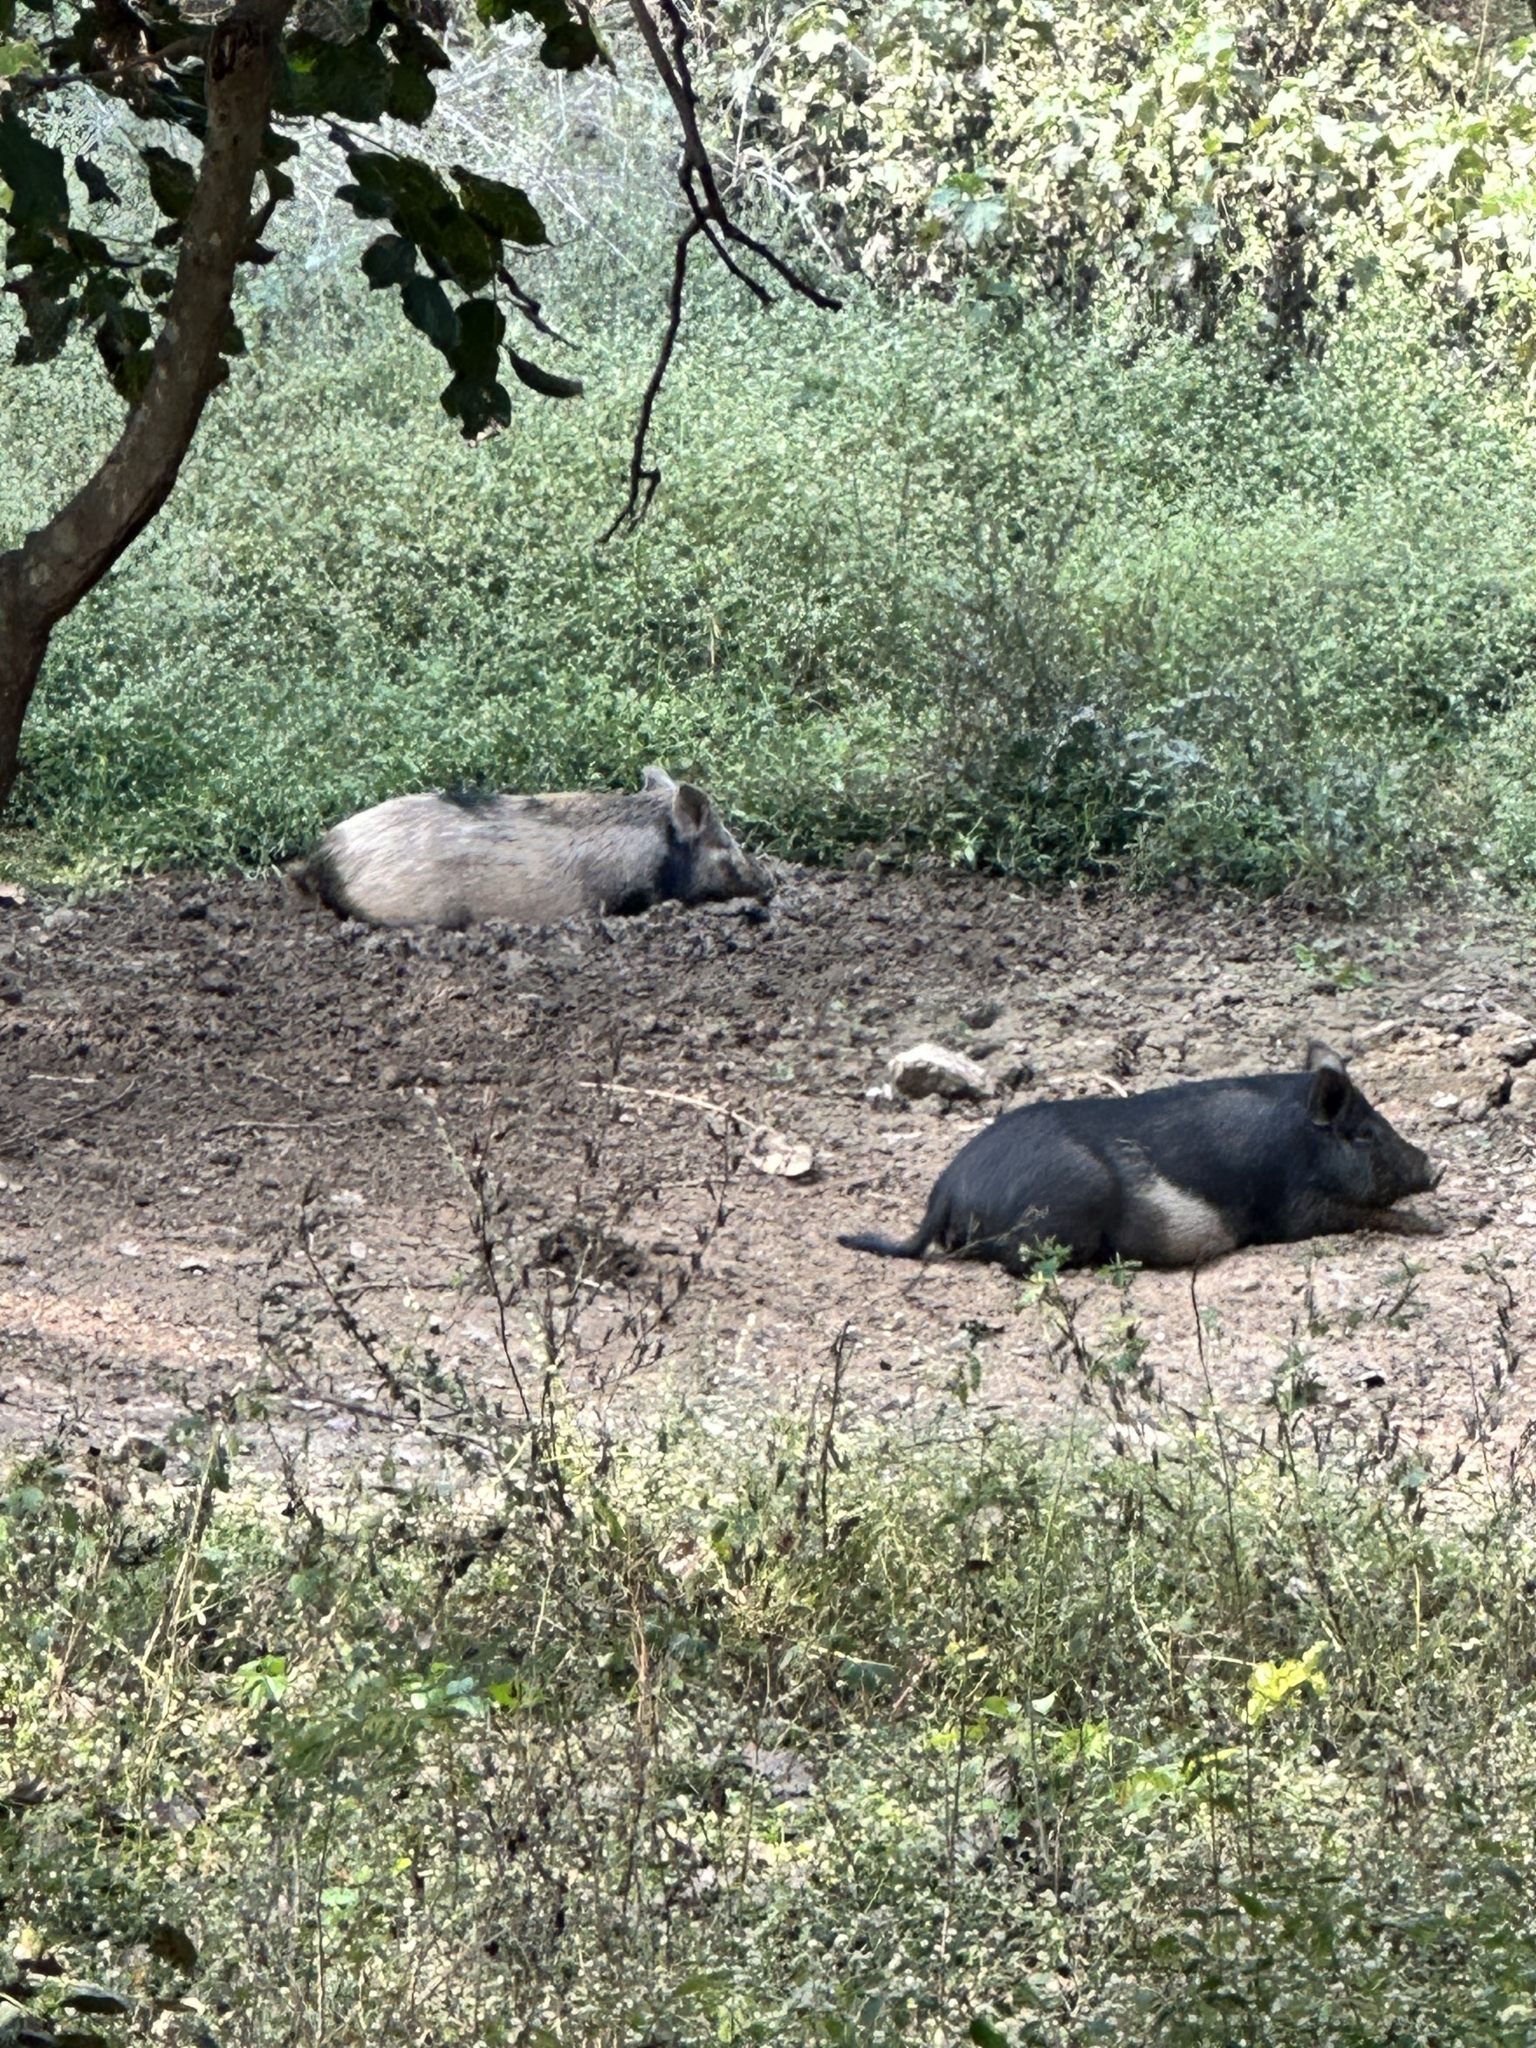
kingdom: Animalia
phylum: Chordata
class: Mammalia
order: Artiodactyla
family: Suidae
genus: Sus
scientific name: Sus scrofa
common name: Wild boar
